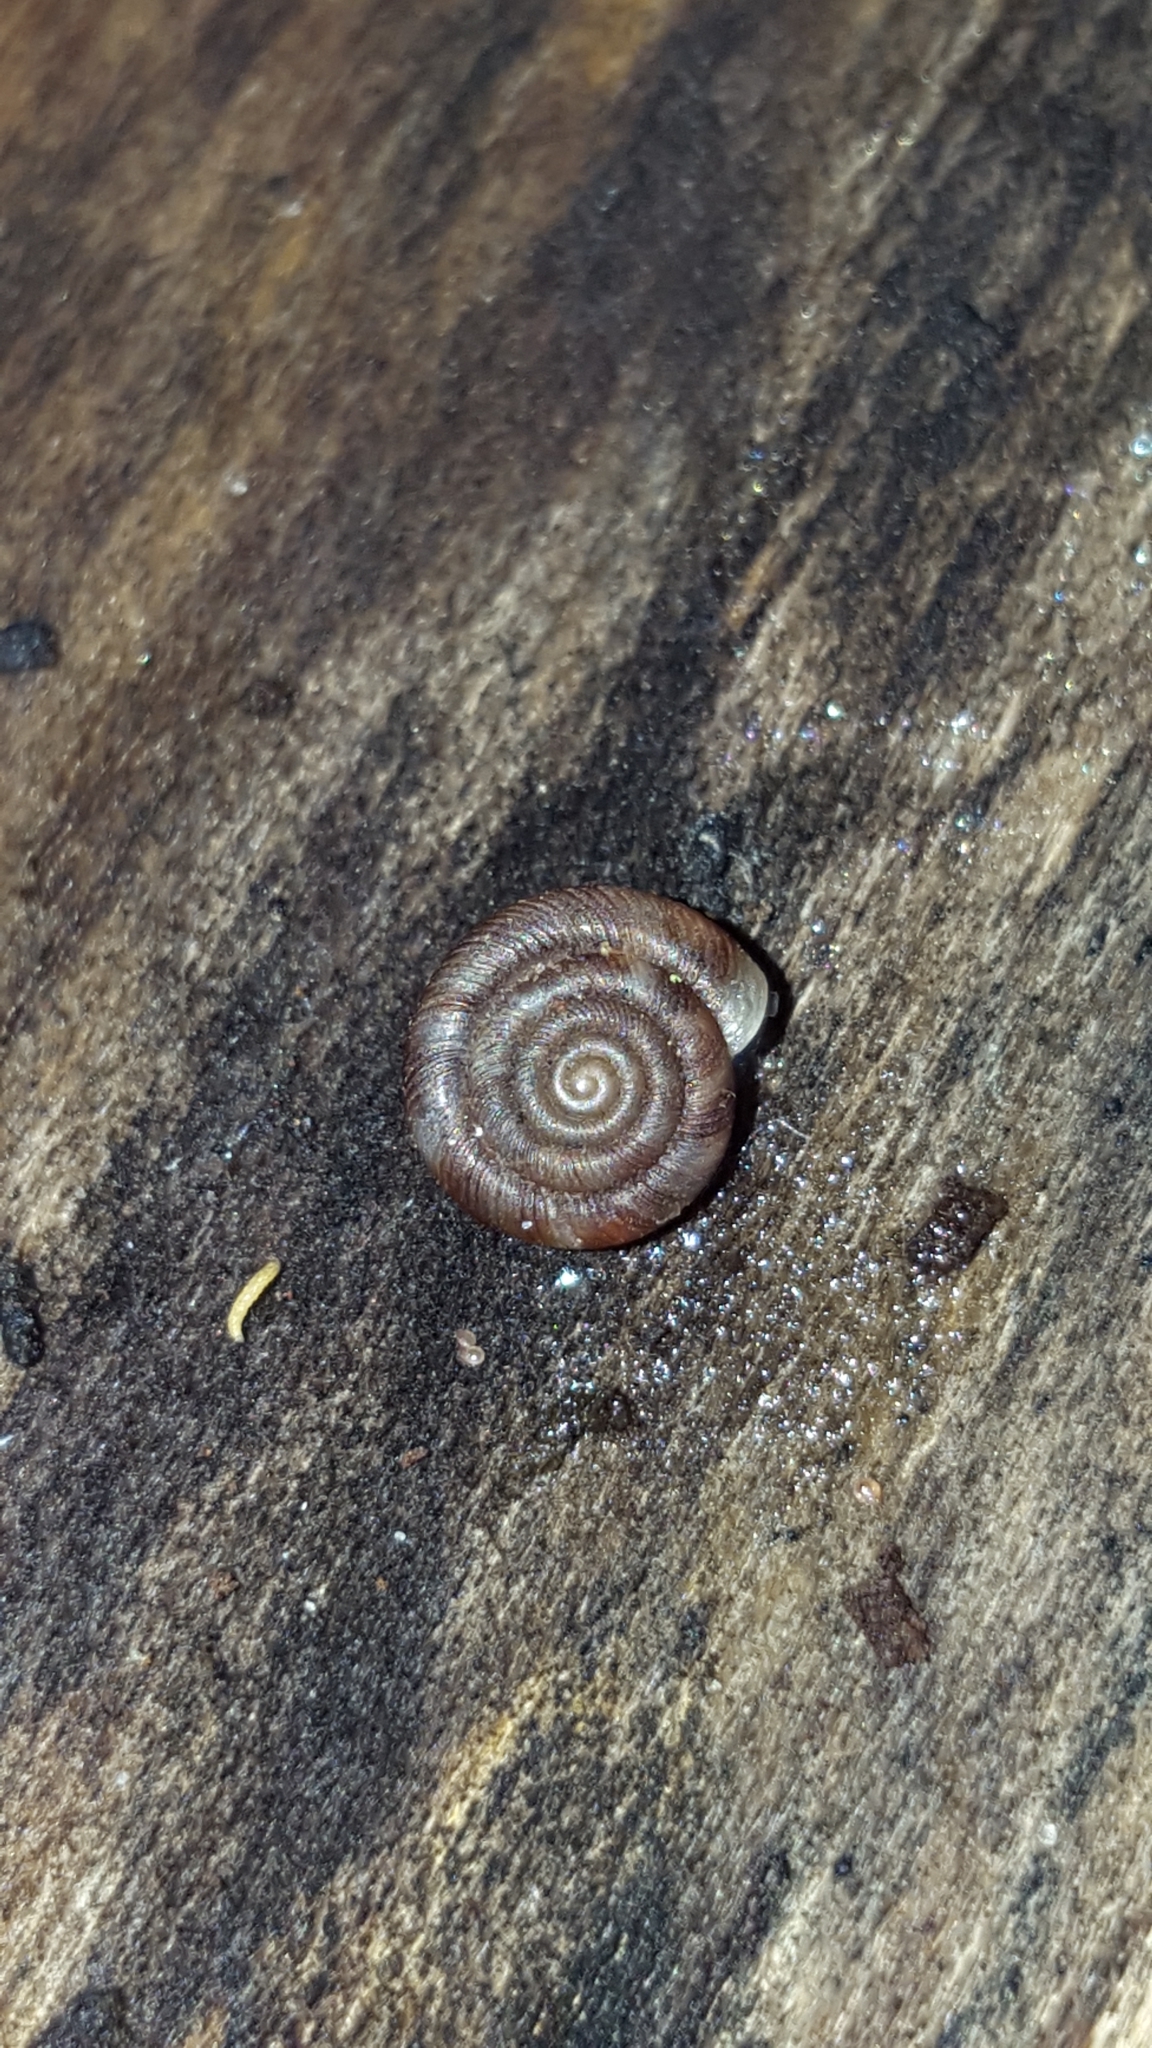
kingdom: Animalia
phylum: Mollusca
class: Gastropoda
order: Stylommatophora
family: Discidae
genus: Discus
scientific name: Discus rotundatus
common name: Rounded snail
